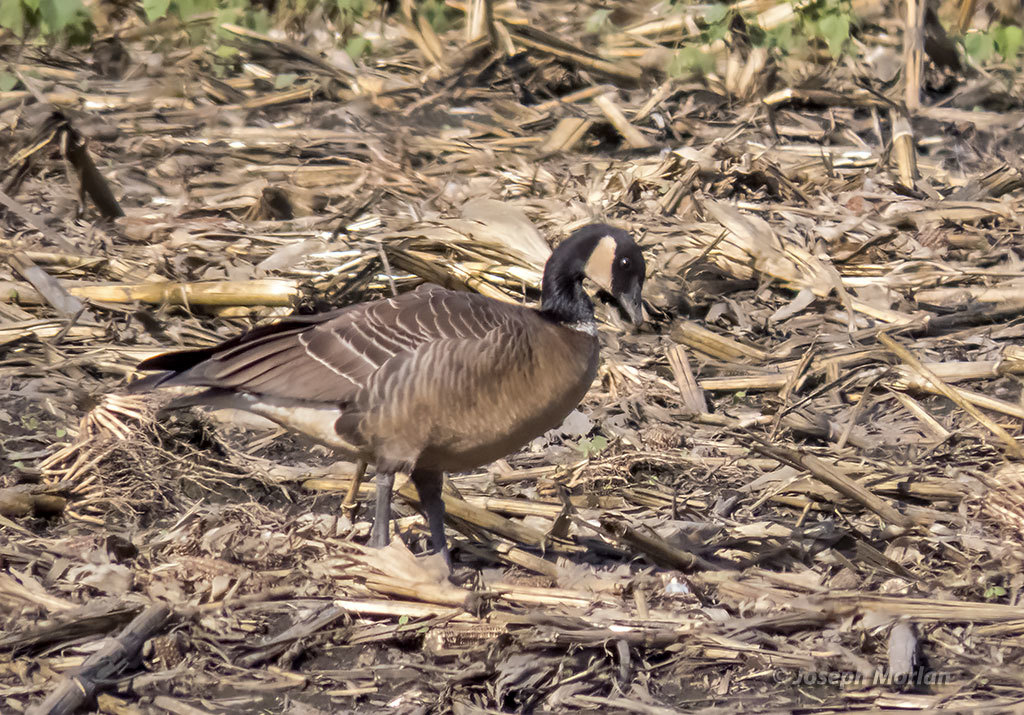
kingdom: Animalia
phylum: Chordata
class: Aves
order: Anseriformes
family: Anatidae
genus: Branta
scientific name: Branta hutchinsii
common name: Cackling goose
